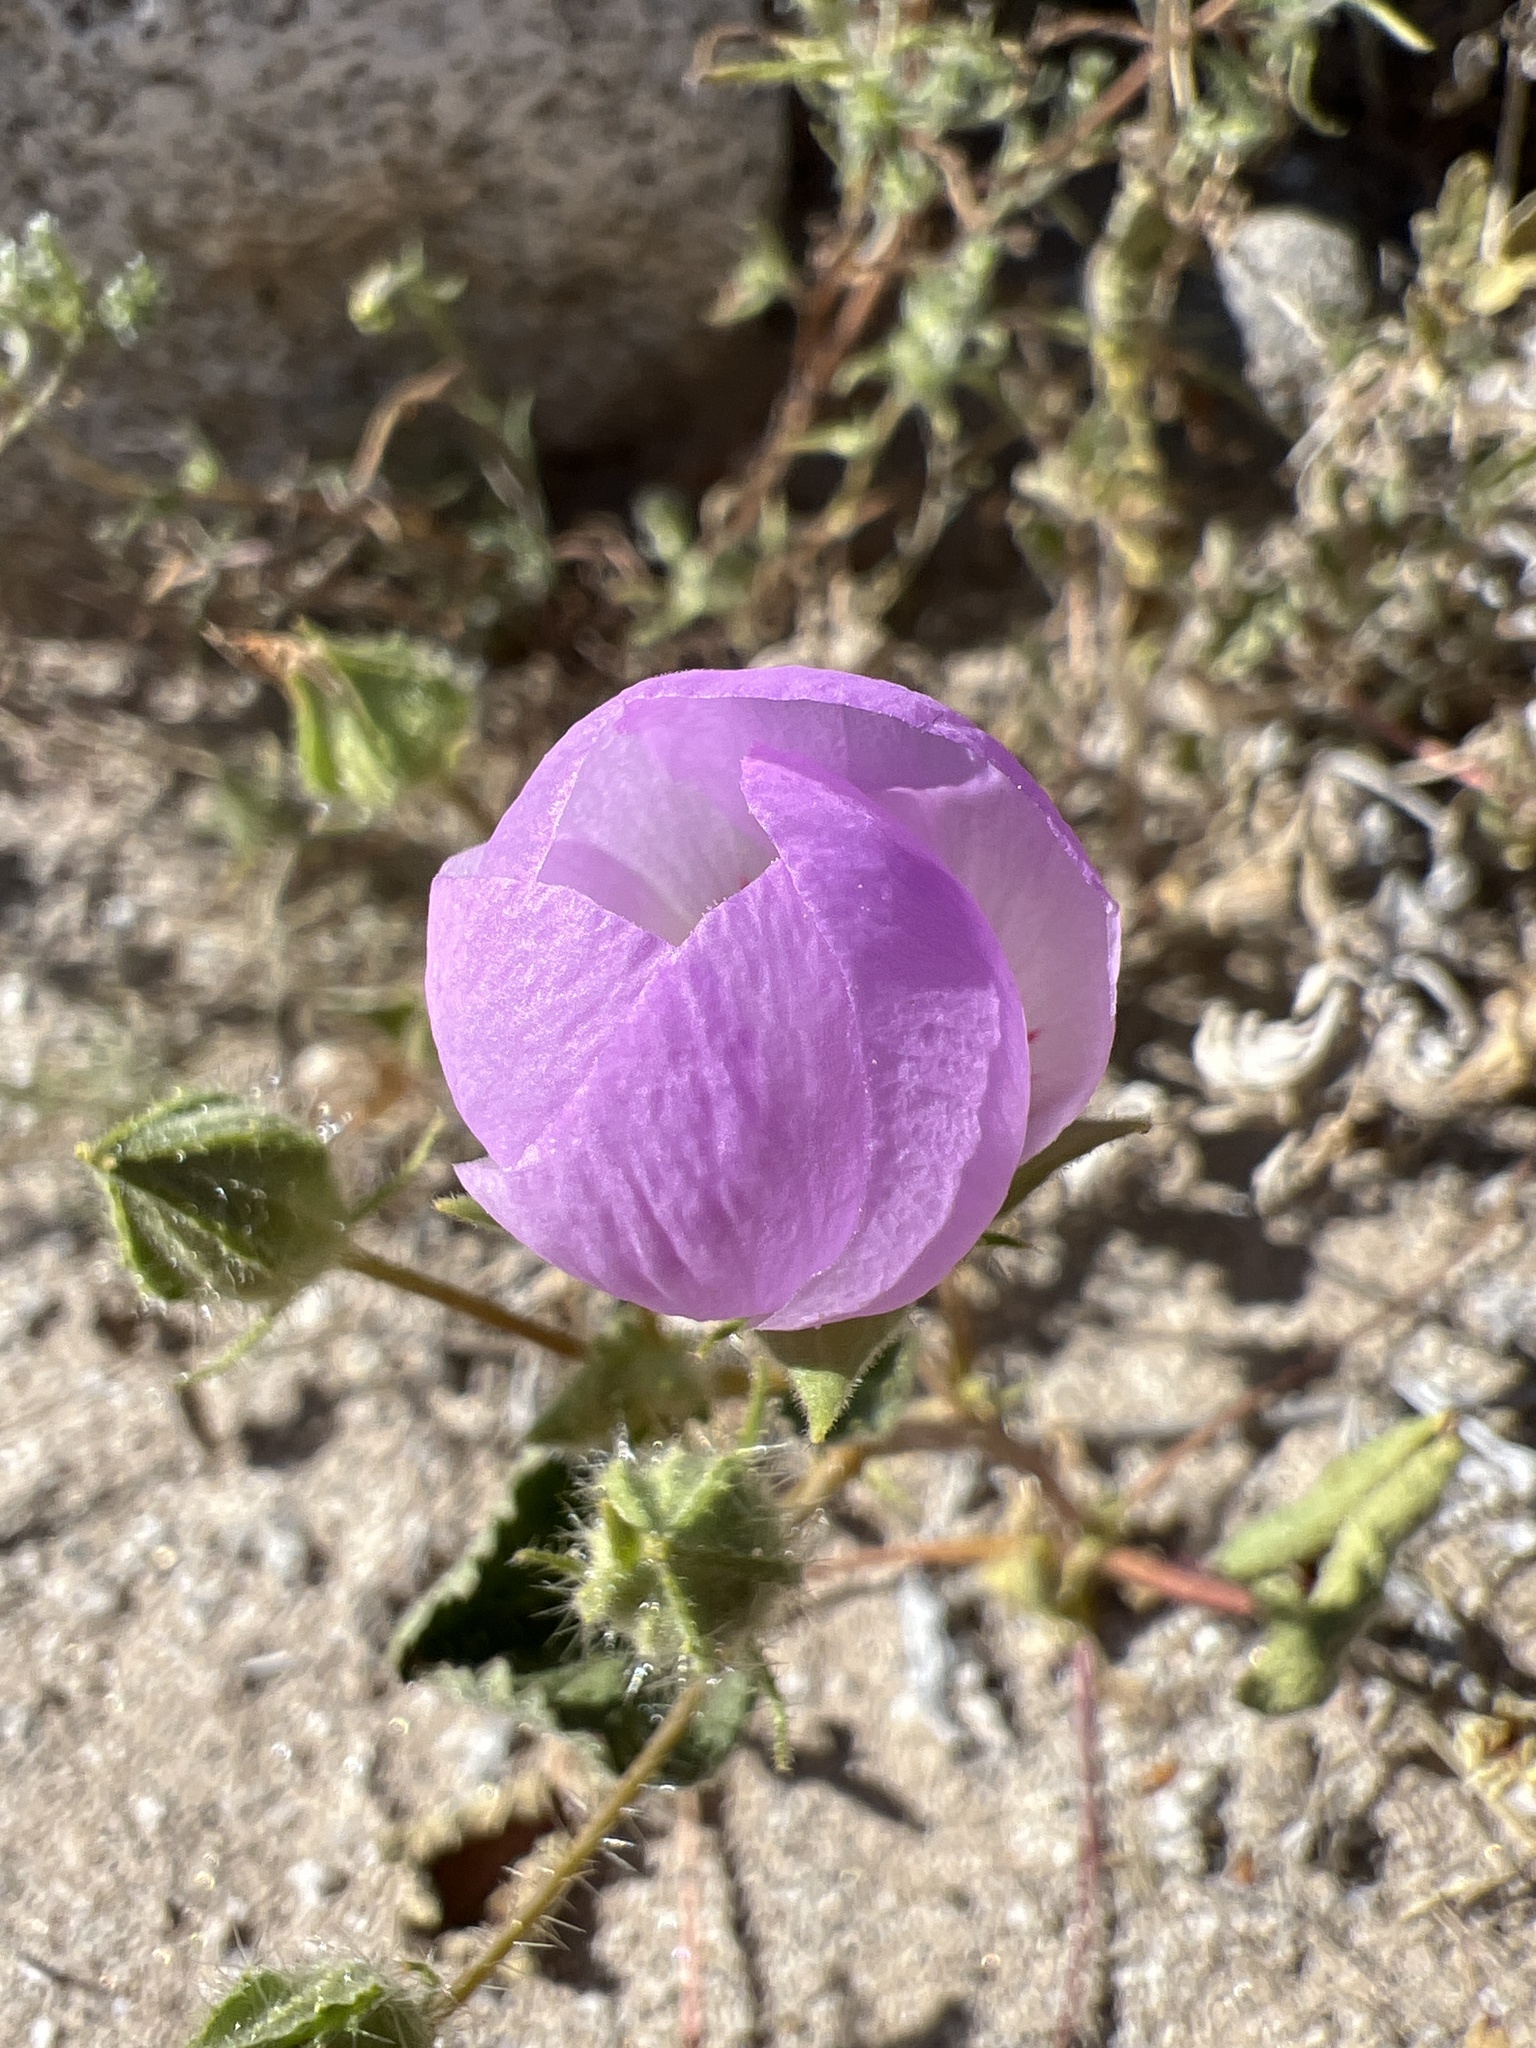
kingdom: Plantae
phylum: Tracheophyta
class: Magnoliopsida
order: Malvales
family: Malvaceae
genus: Eremalche
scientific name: Eremalche rotundifolia
